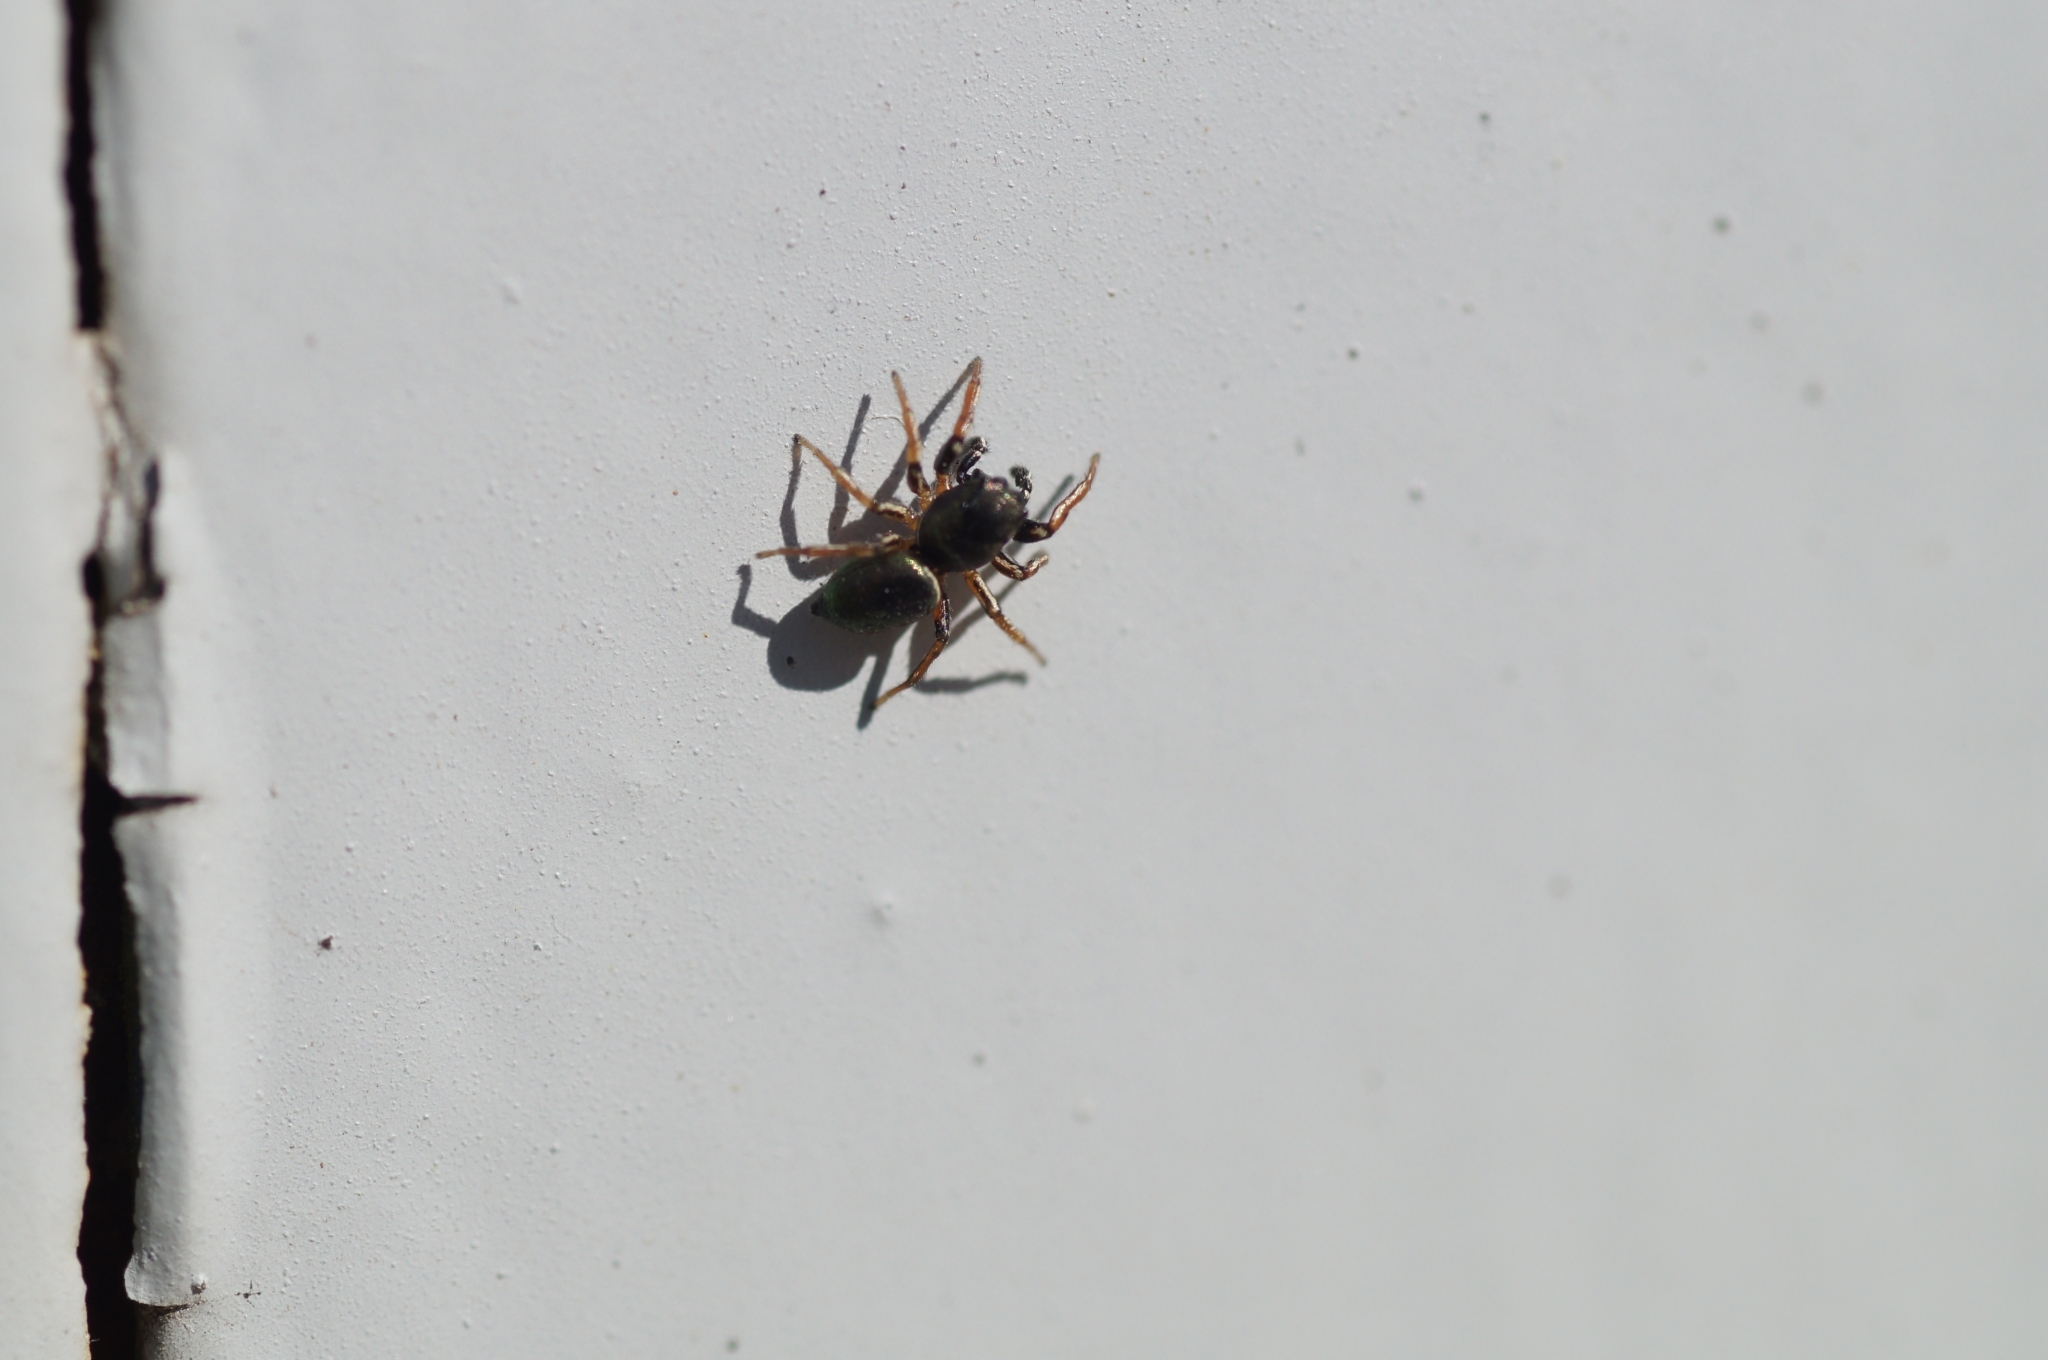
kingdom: Animalia
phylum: Arthropoda
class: Arachnida
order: Araneae
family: Salticidae
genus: Heliophanus
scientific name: Heliophanus auratus
